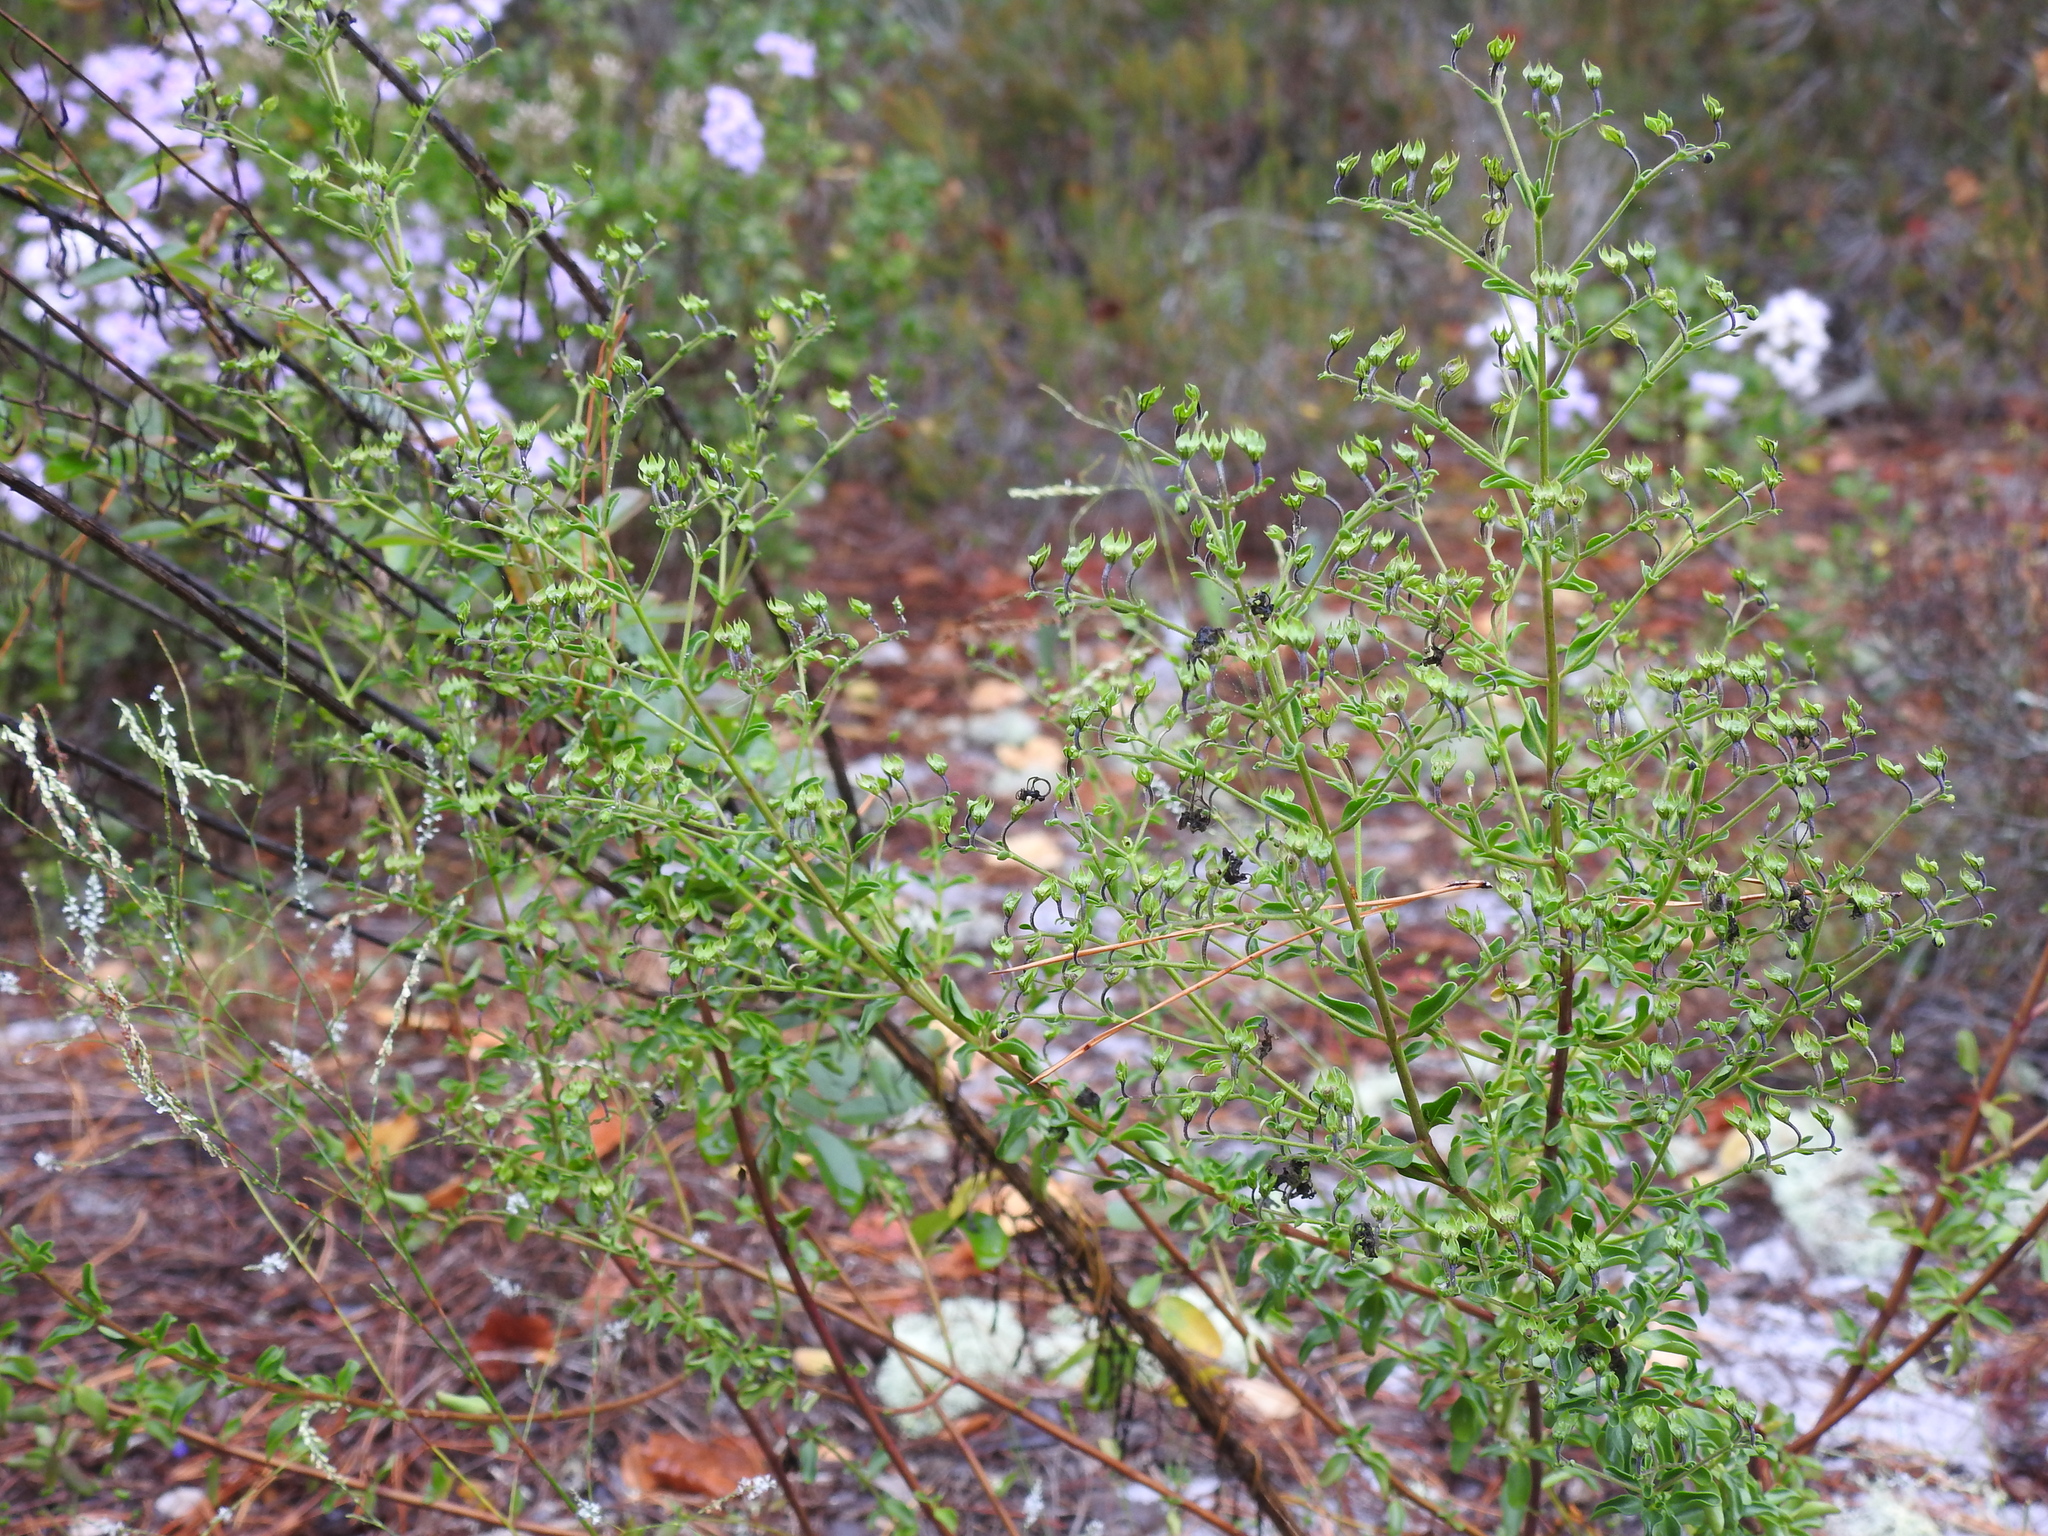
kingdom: Plantae
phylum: Tracheophyta
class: Magnoliopsida
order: Lamiales
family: Lamiaceae
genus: Trichostema
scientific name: Trichostema suffrutescens
